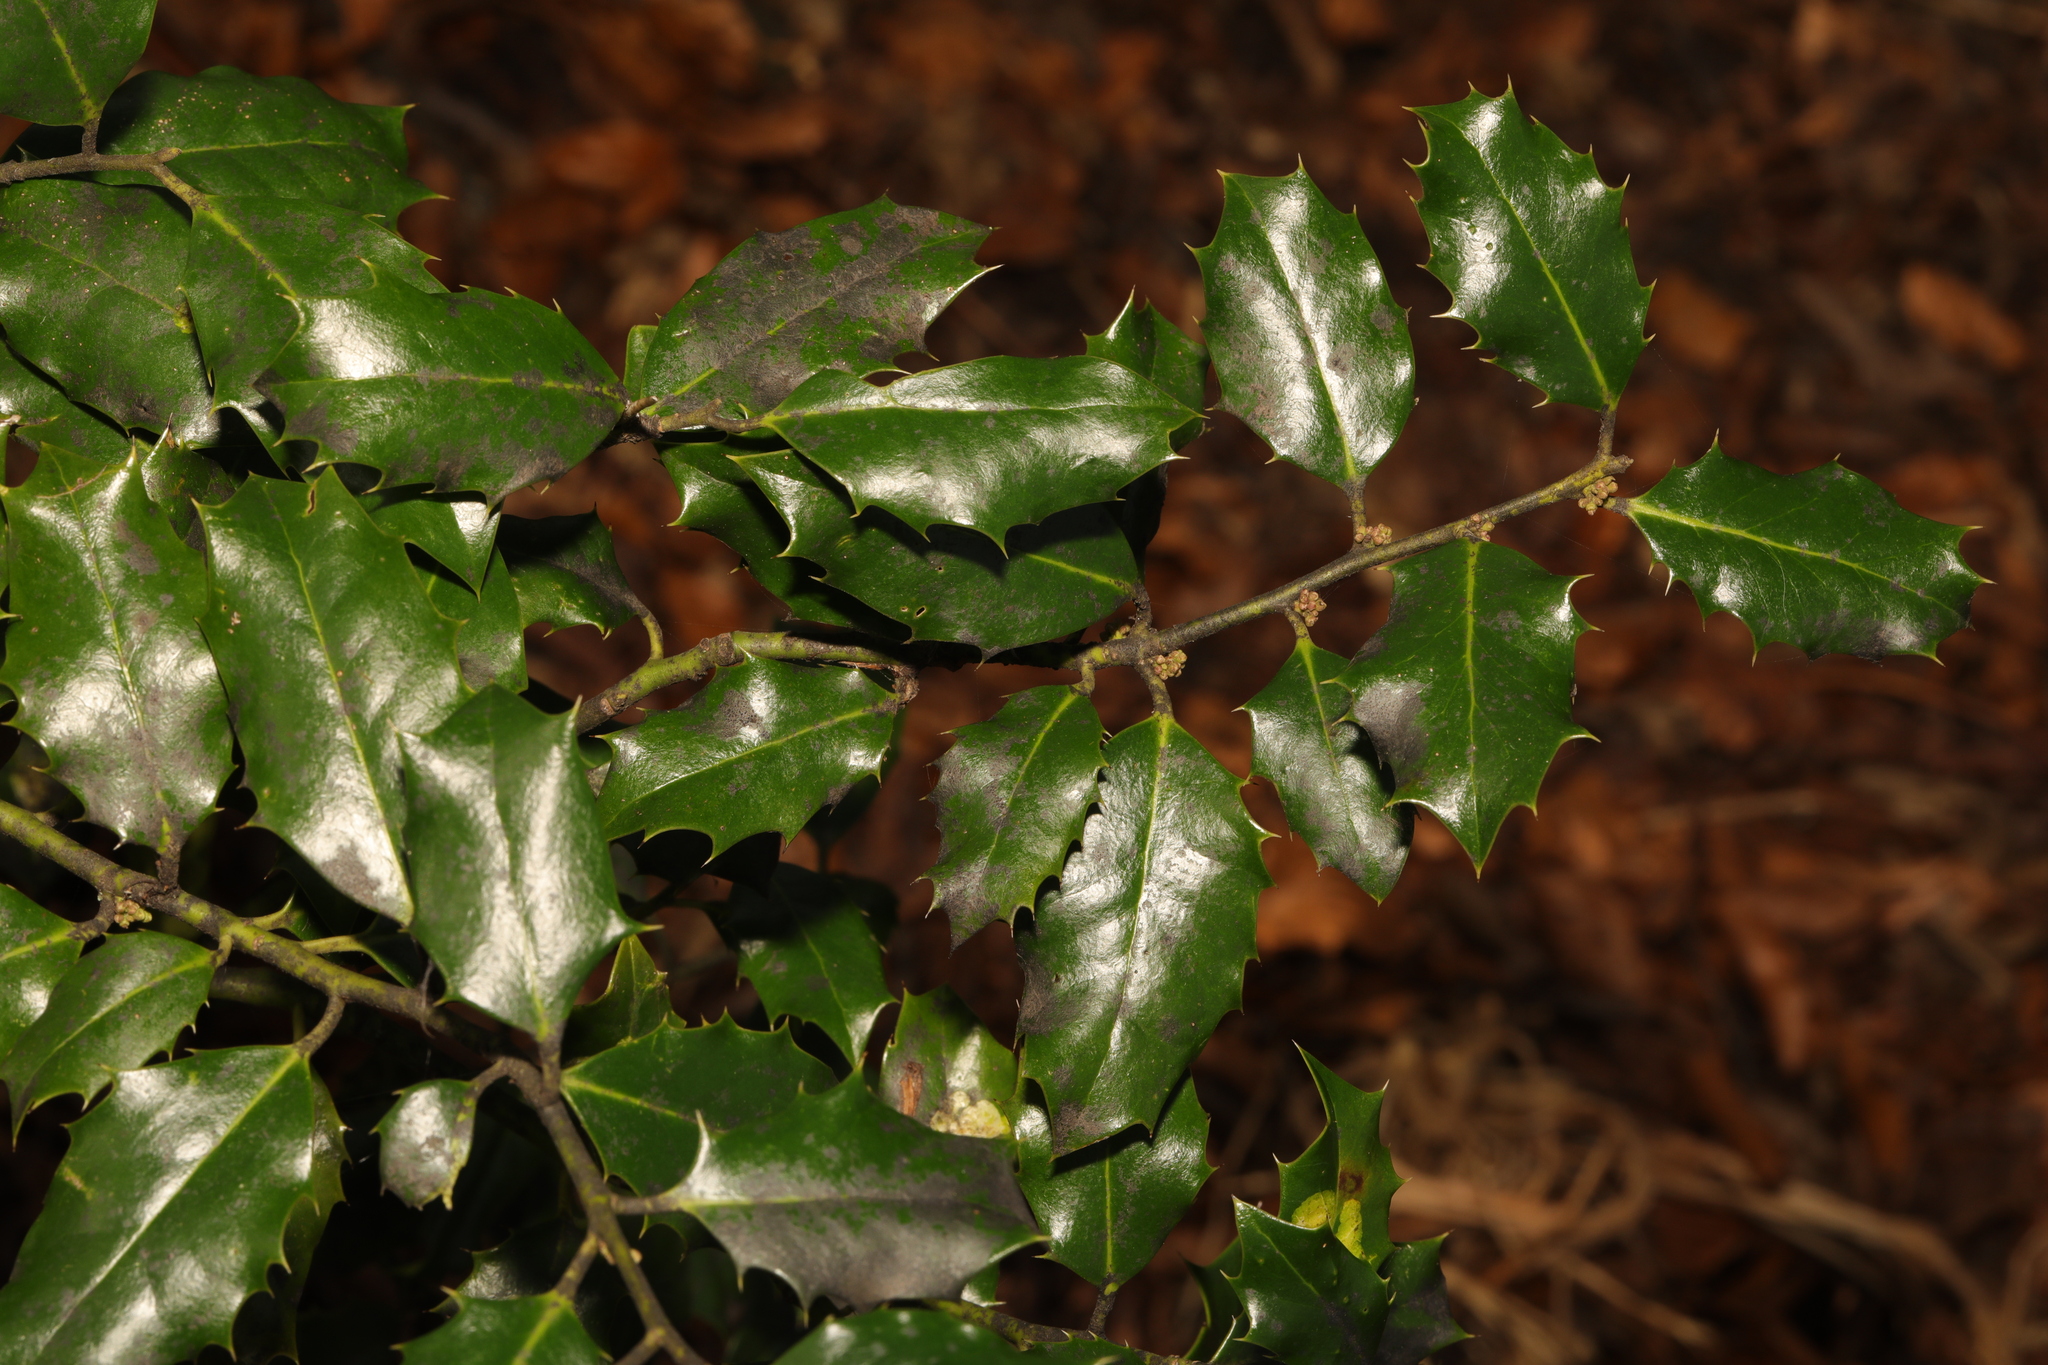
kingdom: Plantae
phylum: Tracheophyta
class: Magnoliopsida
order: Aquifoliales
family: Aquifoliaceae
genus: Ilex
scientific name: Ilex aquifolium
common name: English holly
